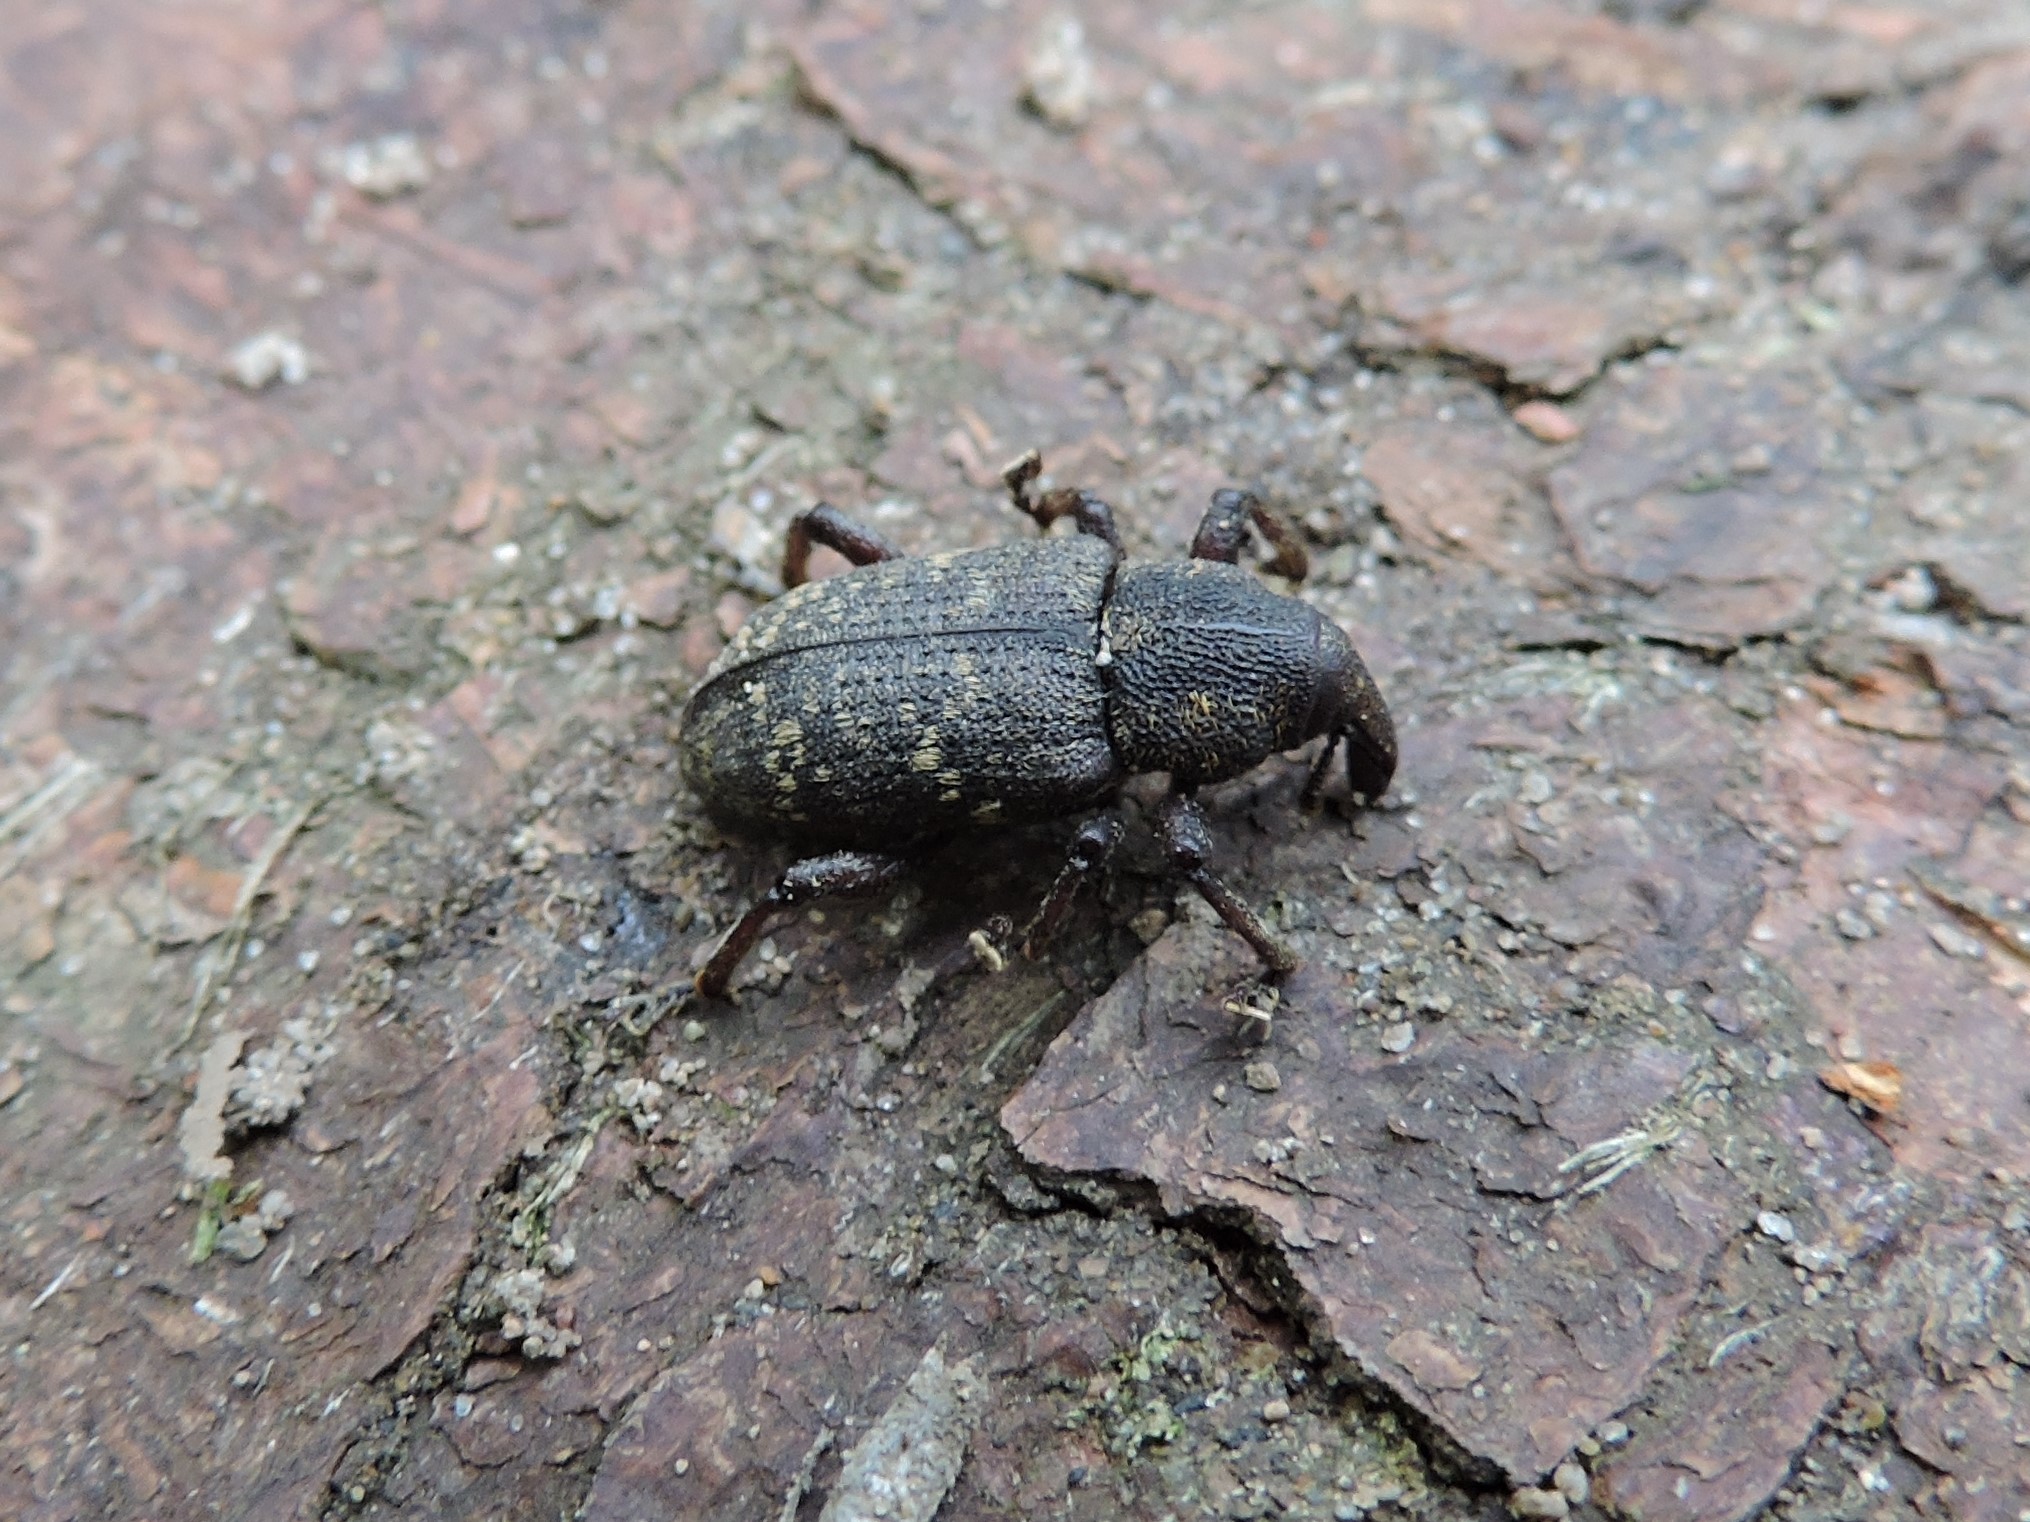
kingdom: Animalia
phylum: Arthropoda
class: Insecta
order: Coleoptera
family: Curculionidae
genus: Hylobius
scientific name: Hylobius abietis
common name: Large pine weevil
